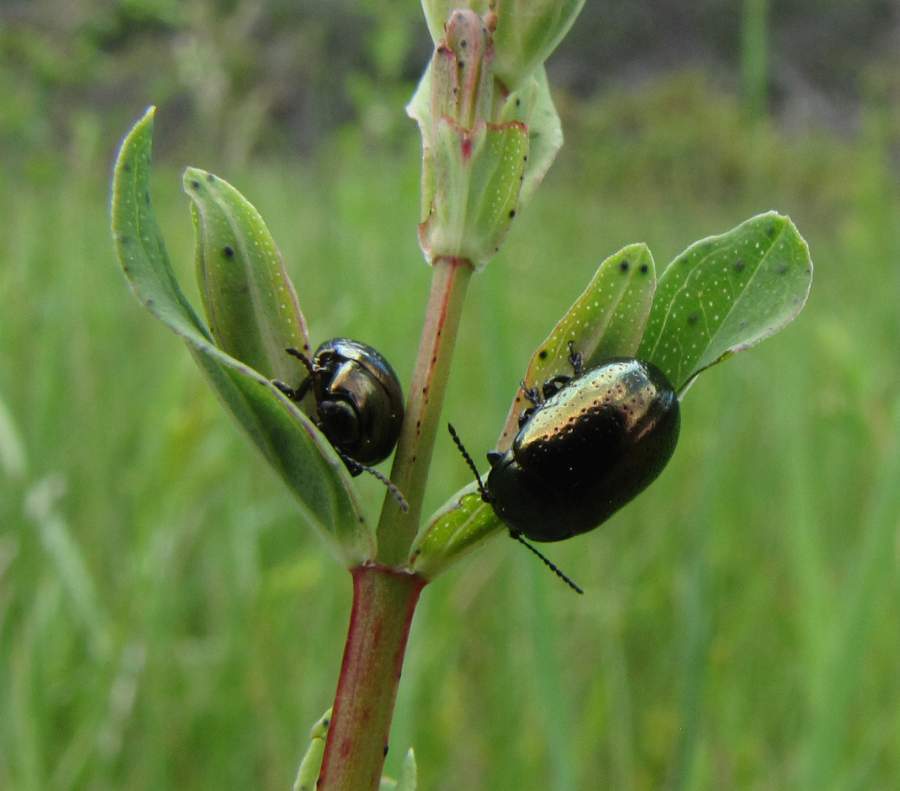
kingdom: Animalia
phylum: Arthropoda
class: Insecta
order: Coleoptera
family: Chrysomelidae
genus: Chrysolina
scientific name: Chrysolina hyperici
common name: St. johnswort beetle
